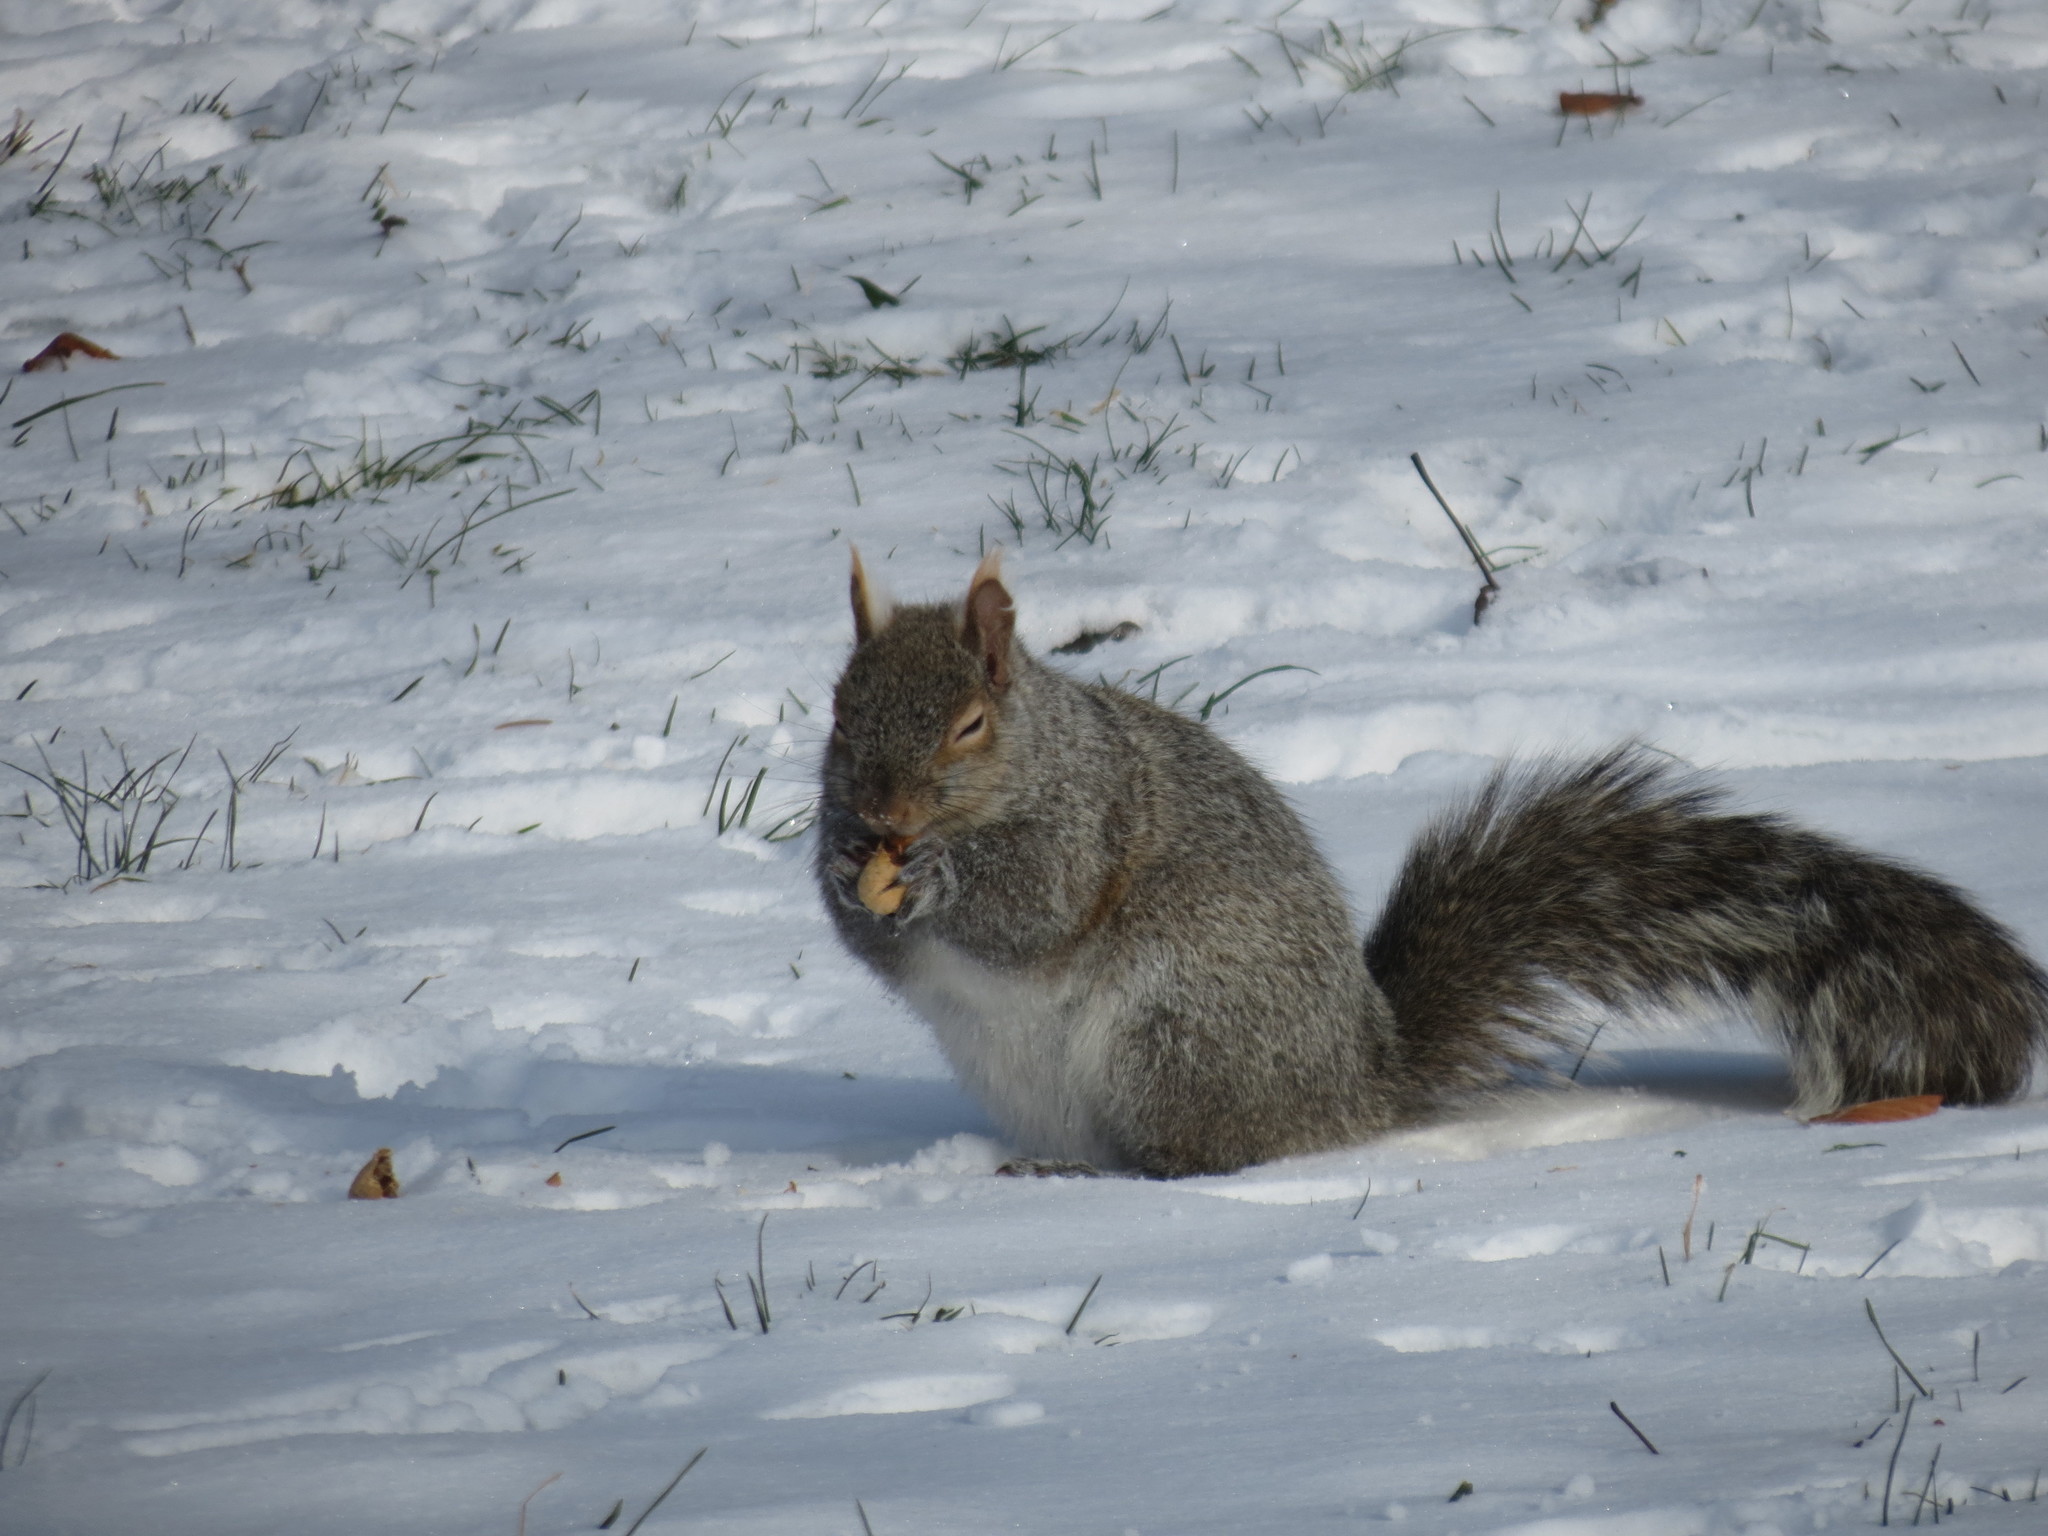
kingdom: Animalia
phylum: Chordata
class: Mammalia
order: Rodentia
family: Sciuridae
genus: Sciurus
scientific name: Sciurus carolinensis
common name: Eastern gray squirrel
